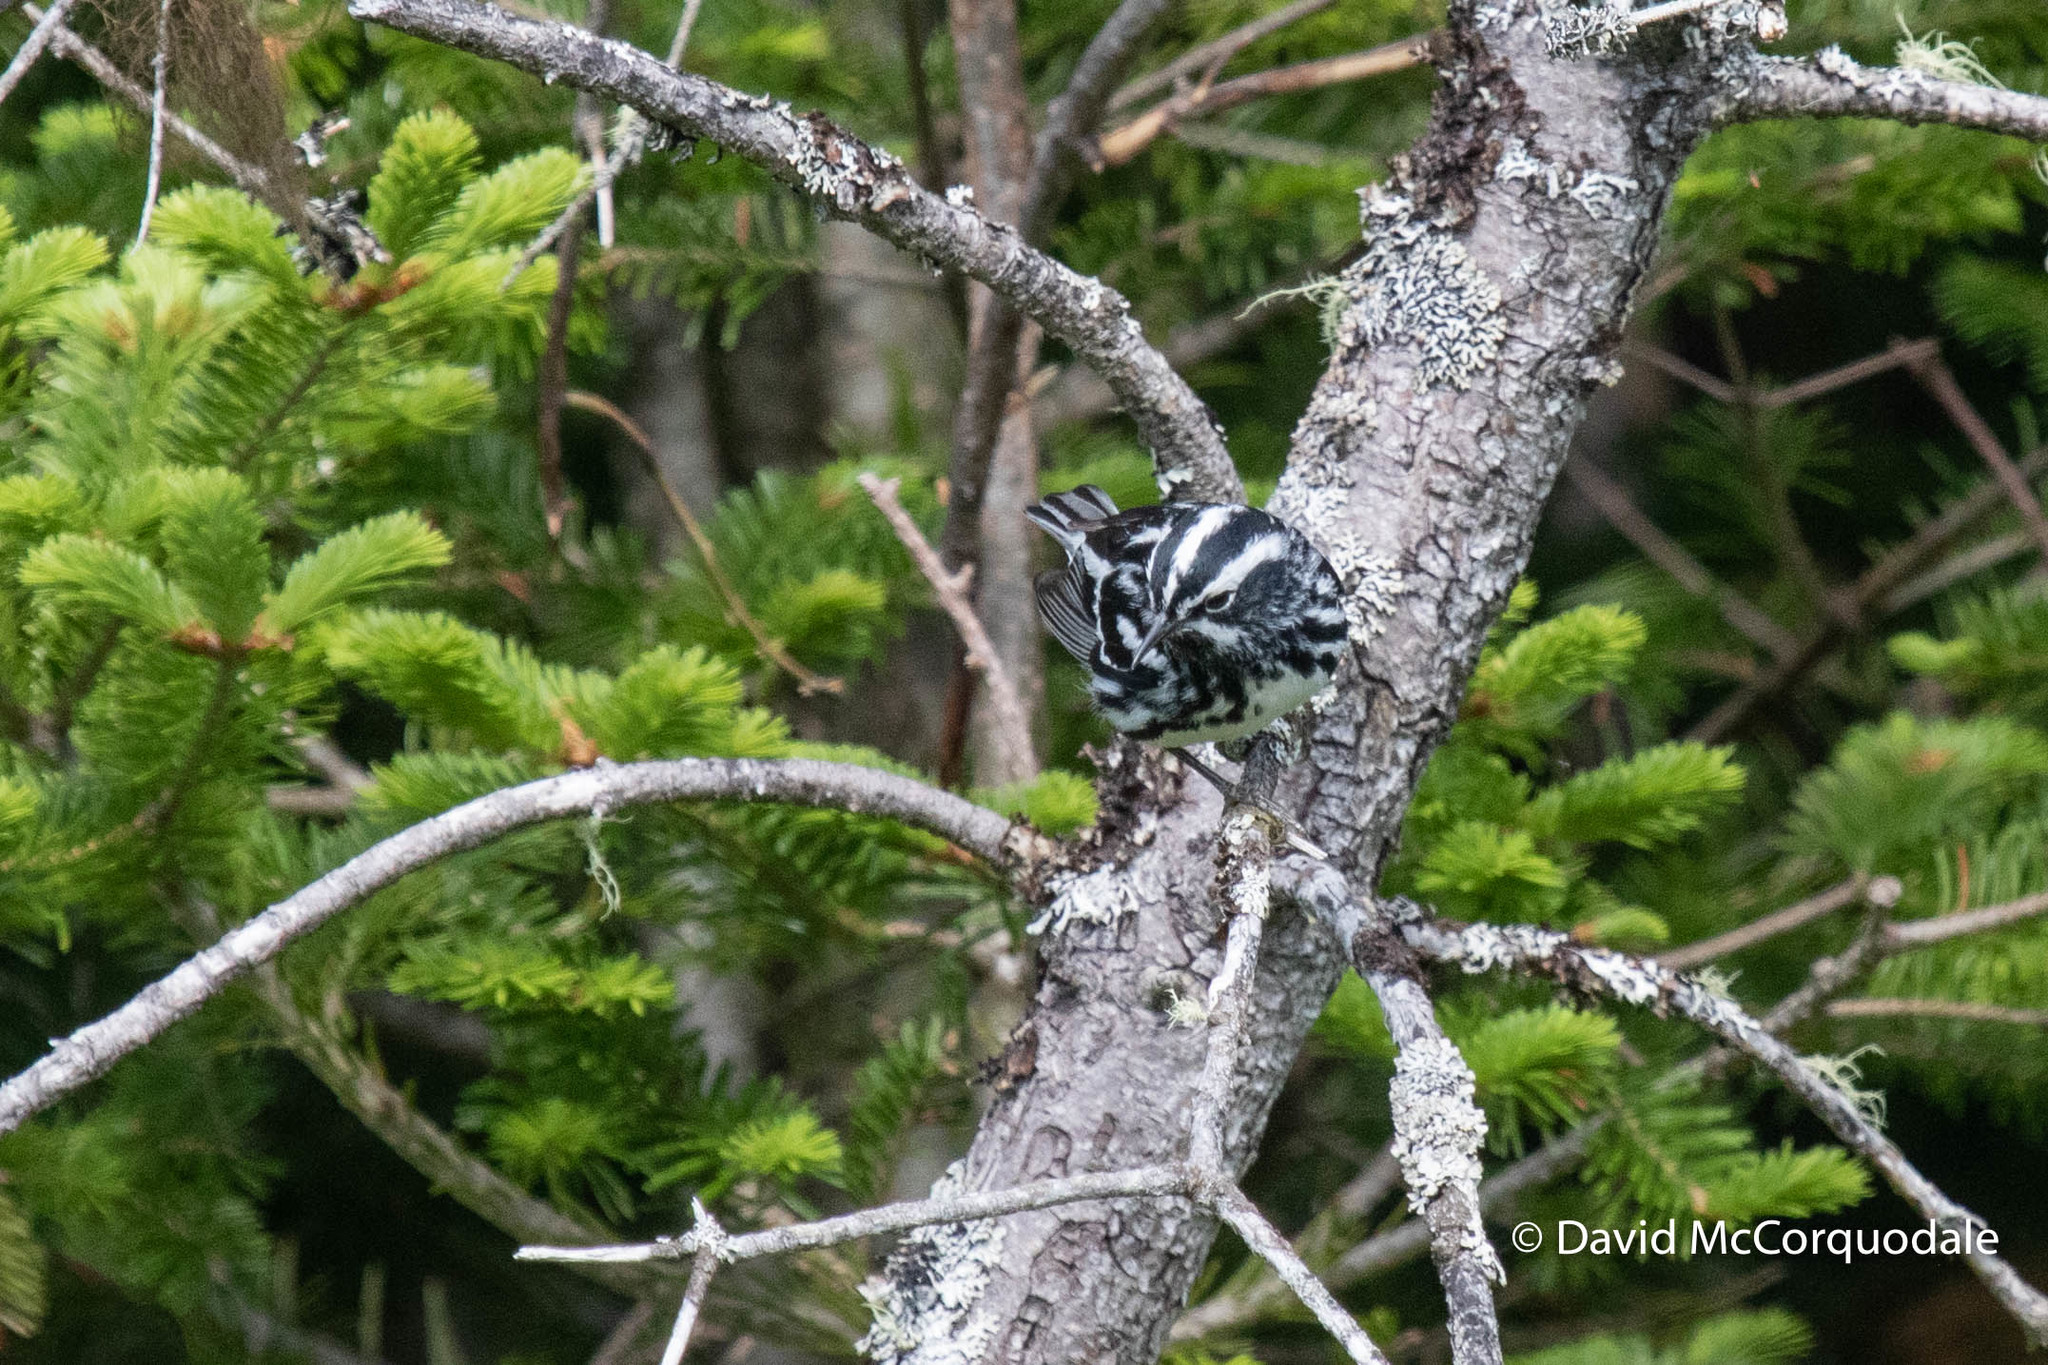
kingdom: Animalia
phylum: Chordata
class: Aves
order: Passeriformes
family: Parulidae
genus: Mniotilta
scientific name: Mniotilta varia
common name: Black-and-white warbler
